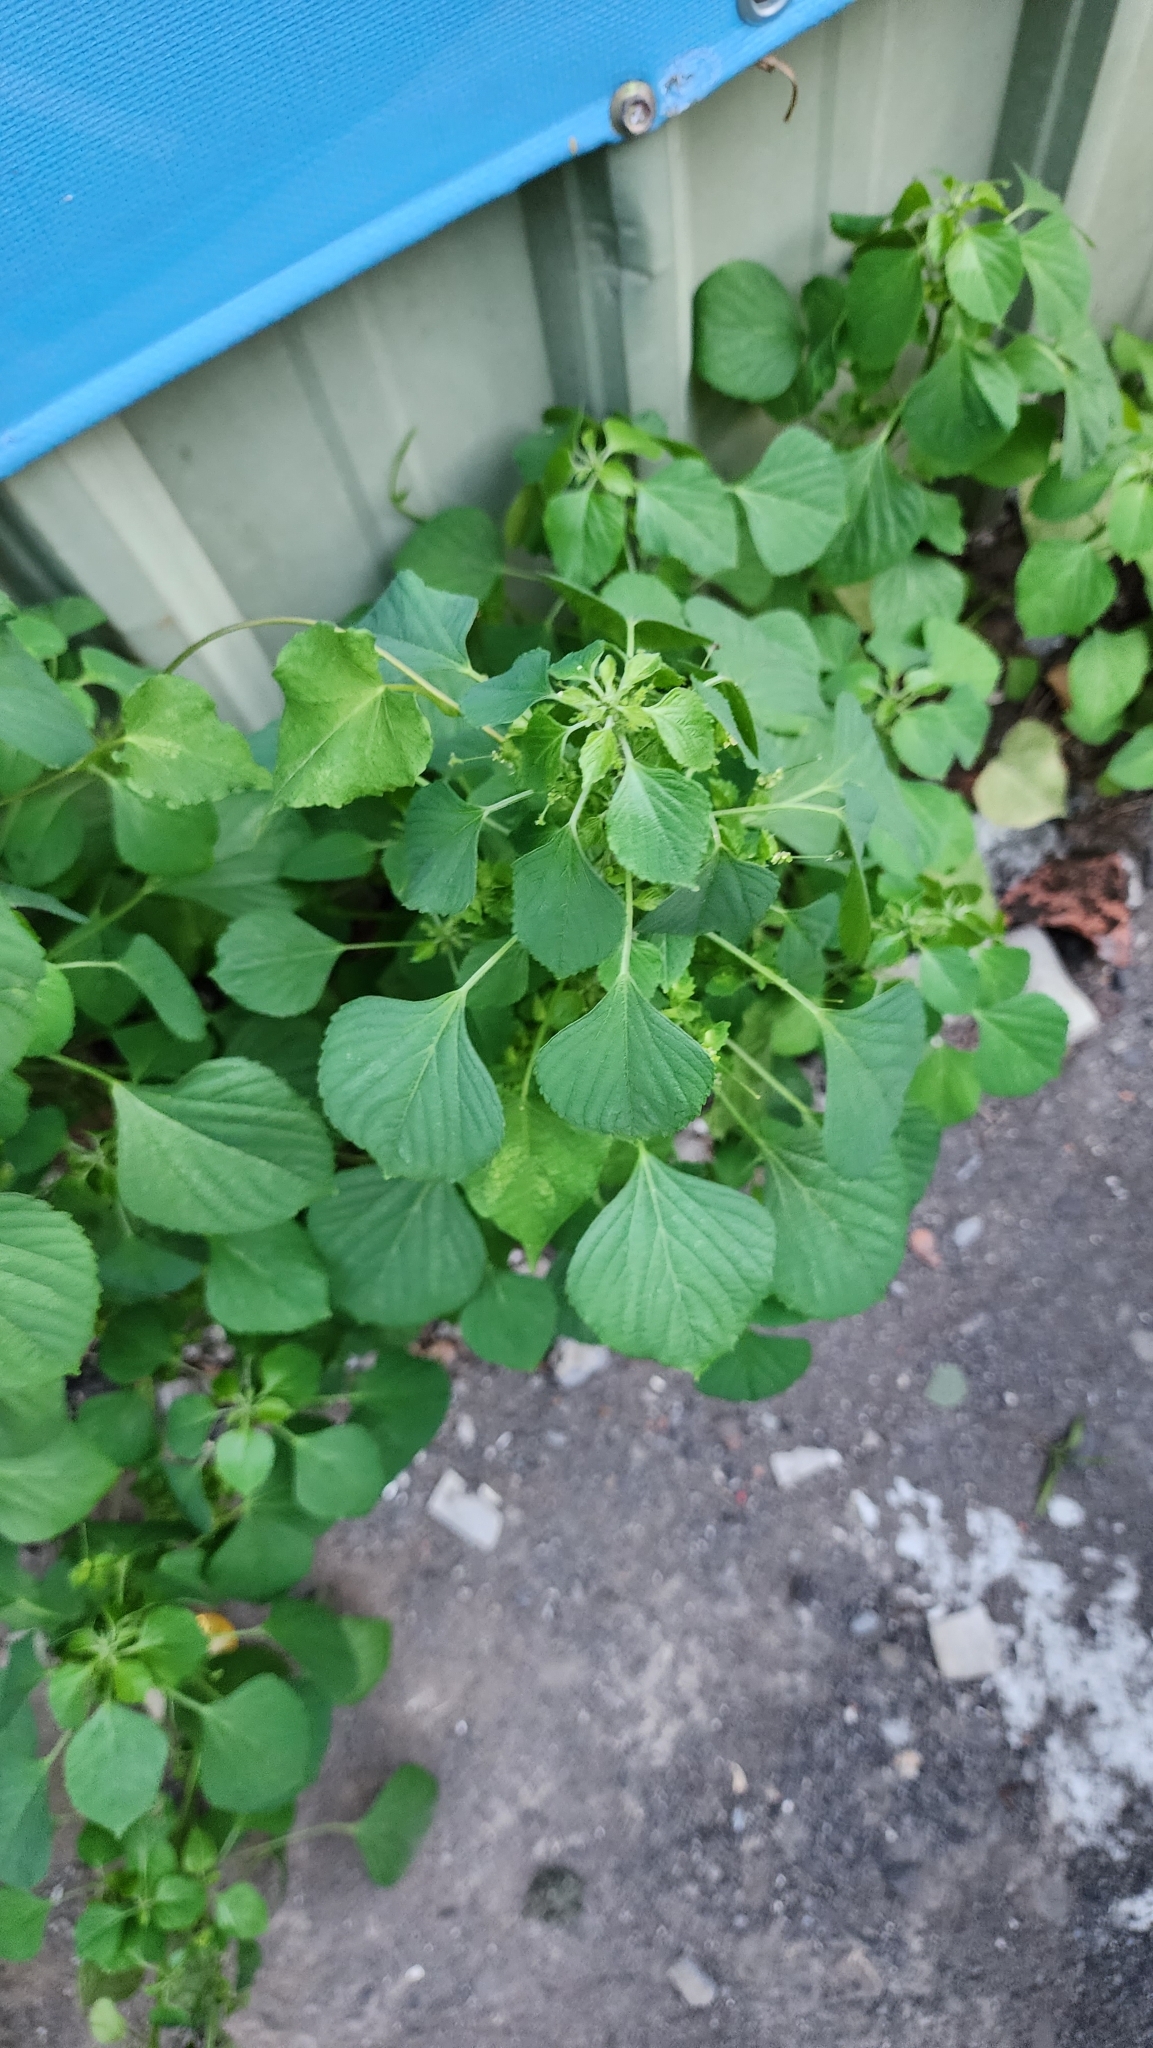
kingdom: Plantae
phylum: Tracheophyta
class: Magnoliopsida
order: Malpighiales
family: Euphorbiaceae
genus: Acalypha
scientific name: Acalypha indica
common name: Indian acalypha
